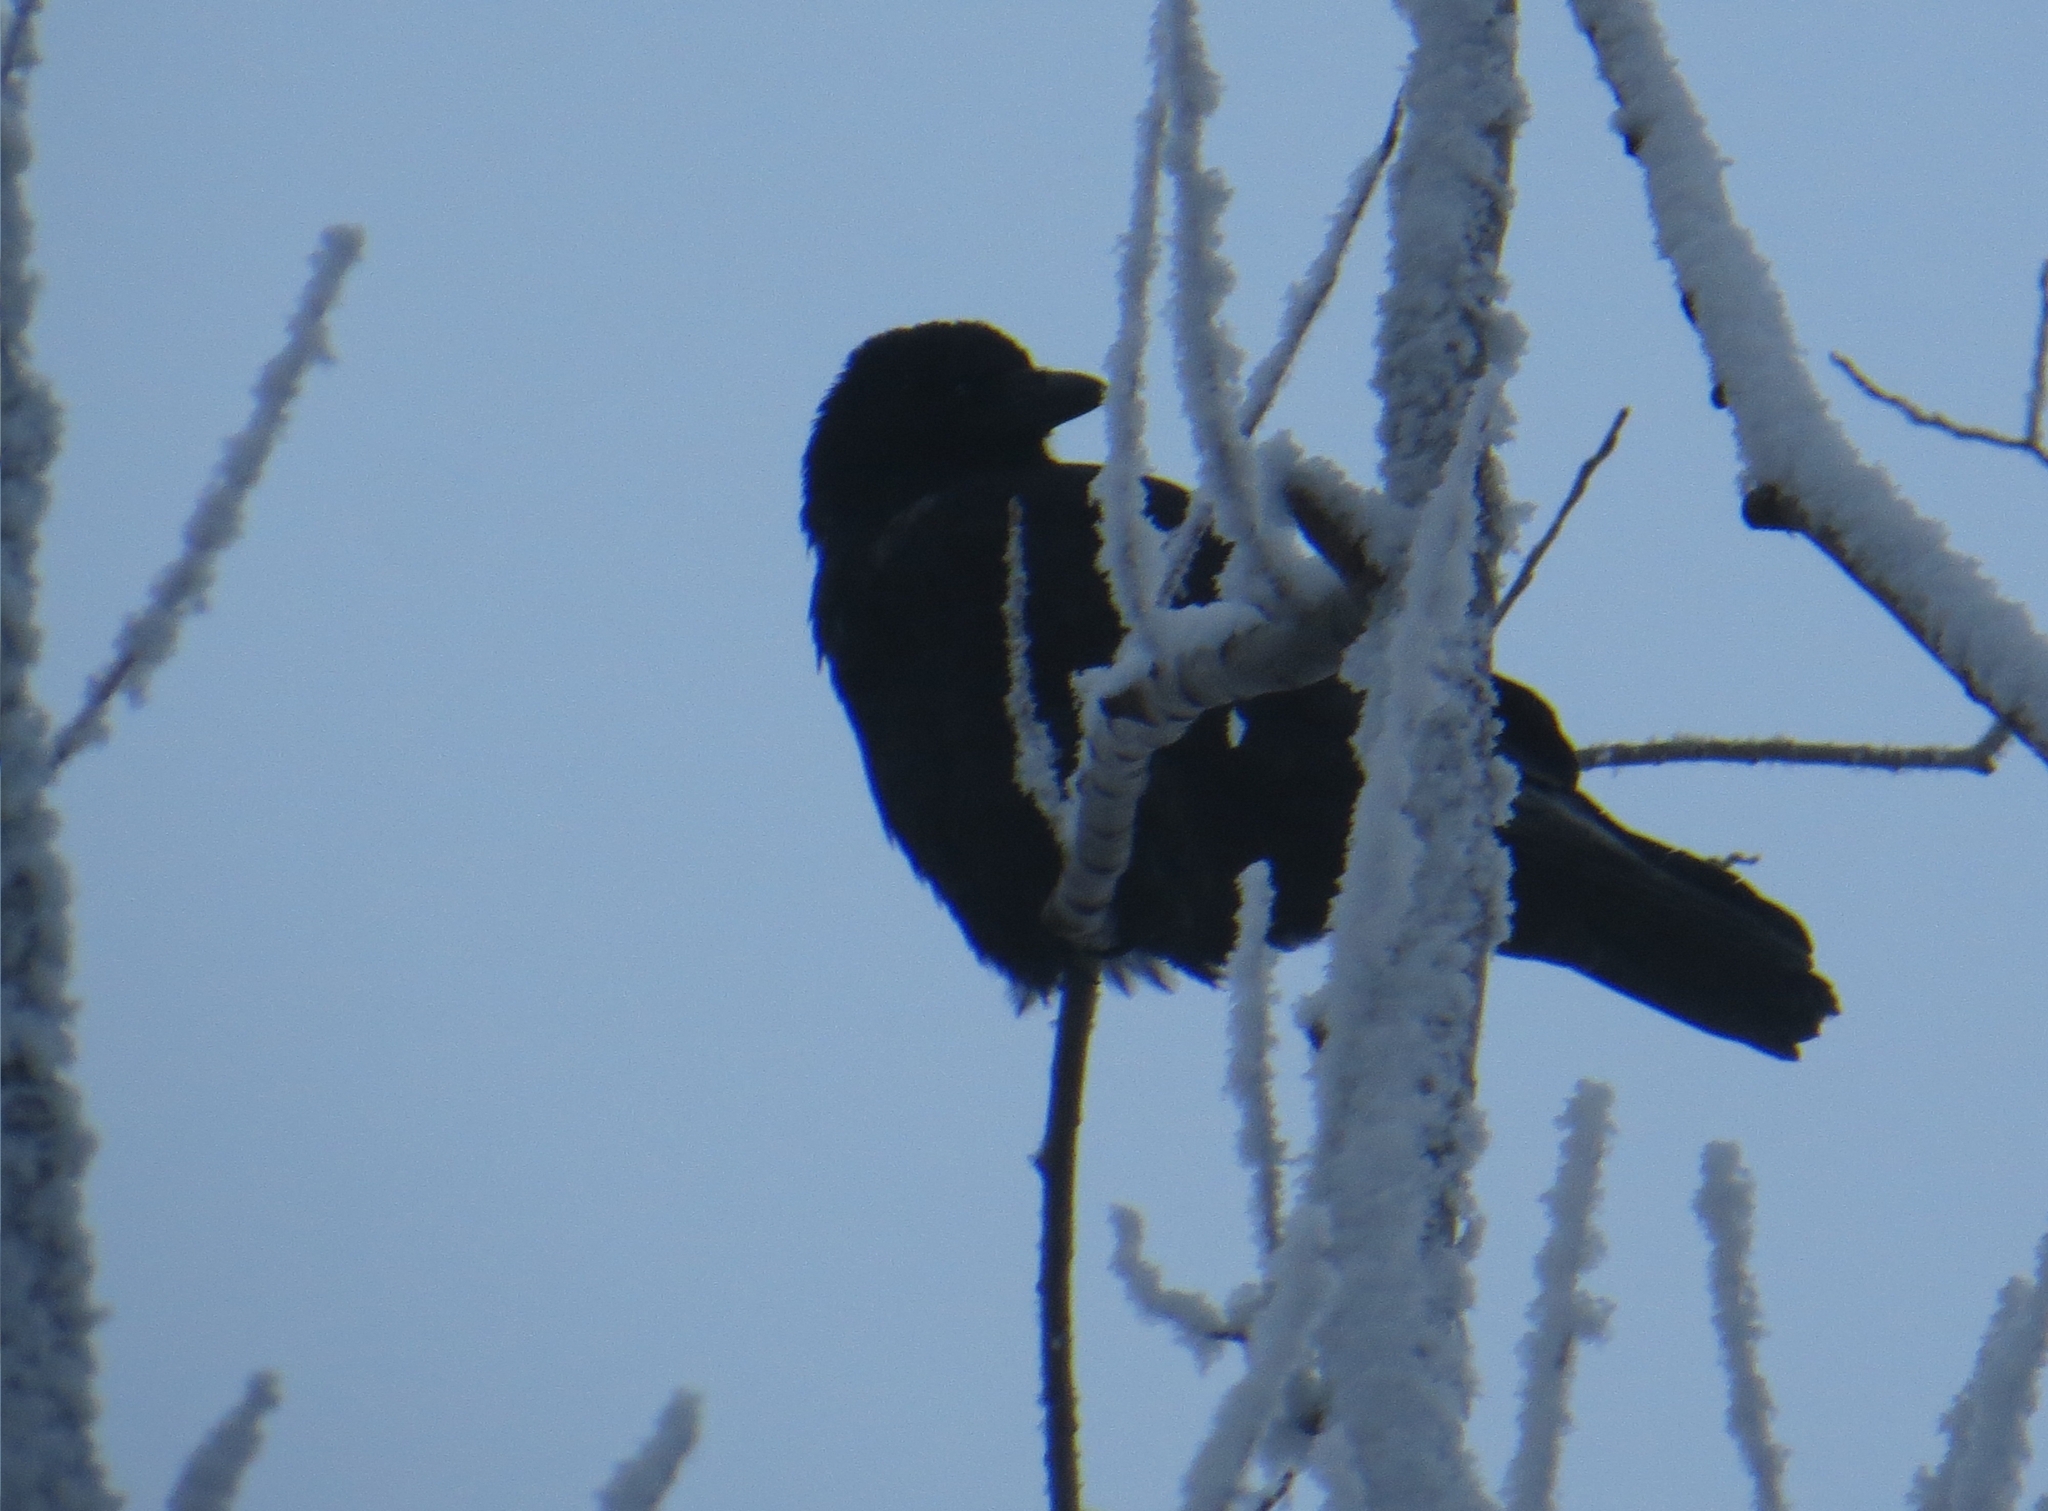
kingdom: Animalia
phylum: Chordata
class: Aves
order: Passeriformes
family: Corvidae
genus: Corvus
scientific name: Corvus
